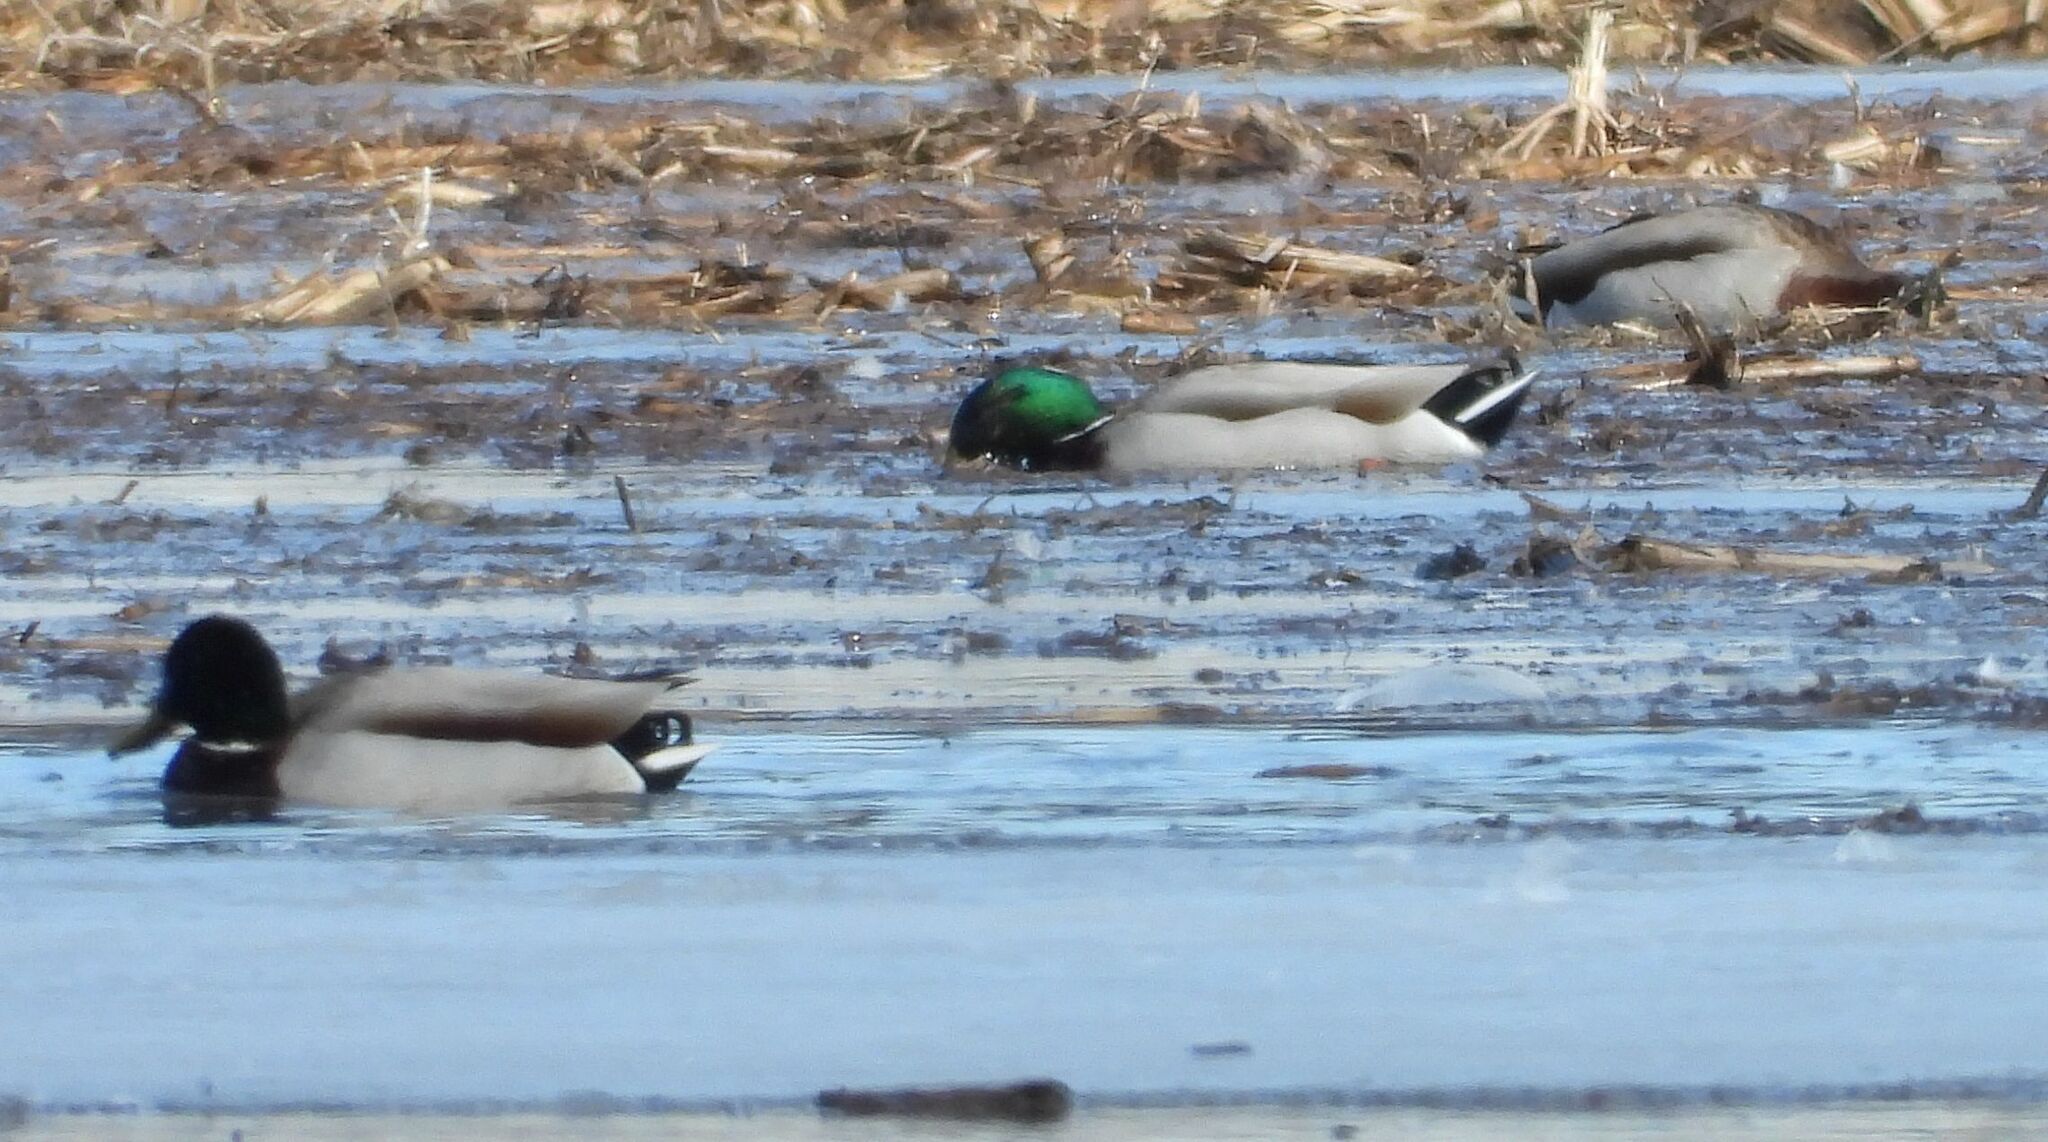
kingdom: Animalia
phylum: Chordata
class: Aves
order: Anseriformes
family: Anatidae
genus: Anas
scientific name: Anas platyrhynchos
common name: Mallard
